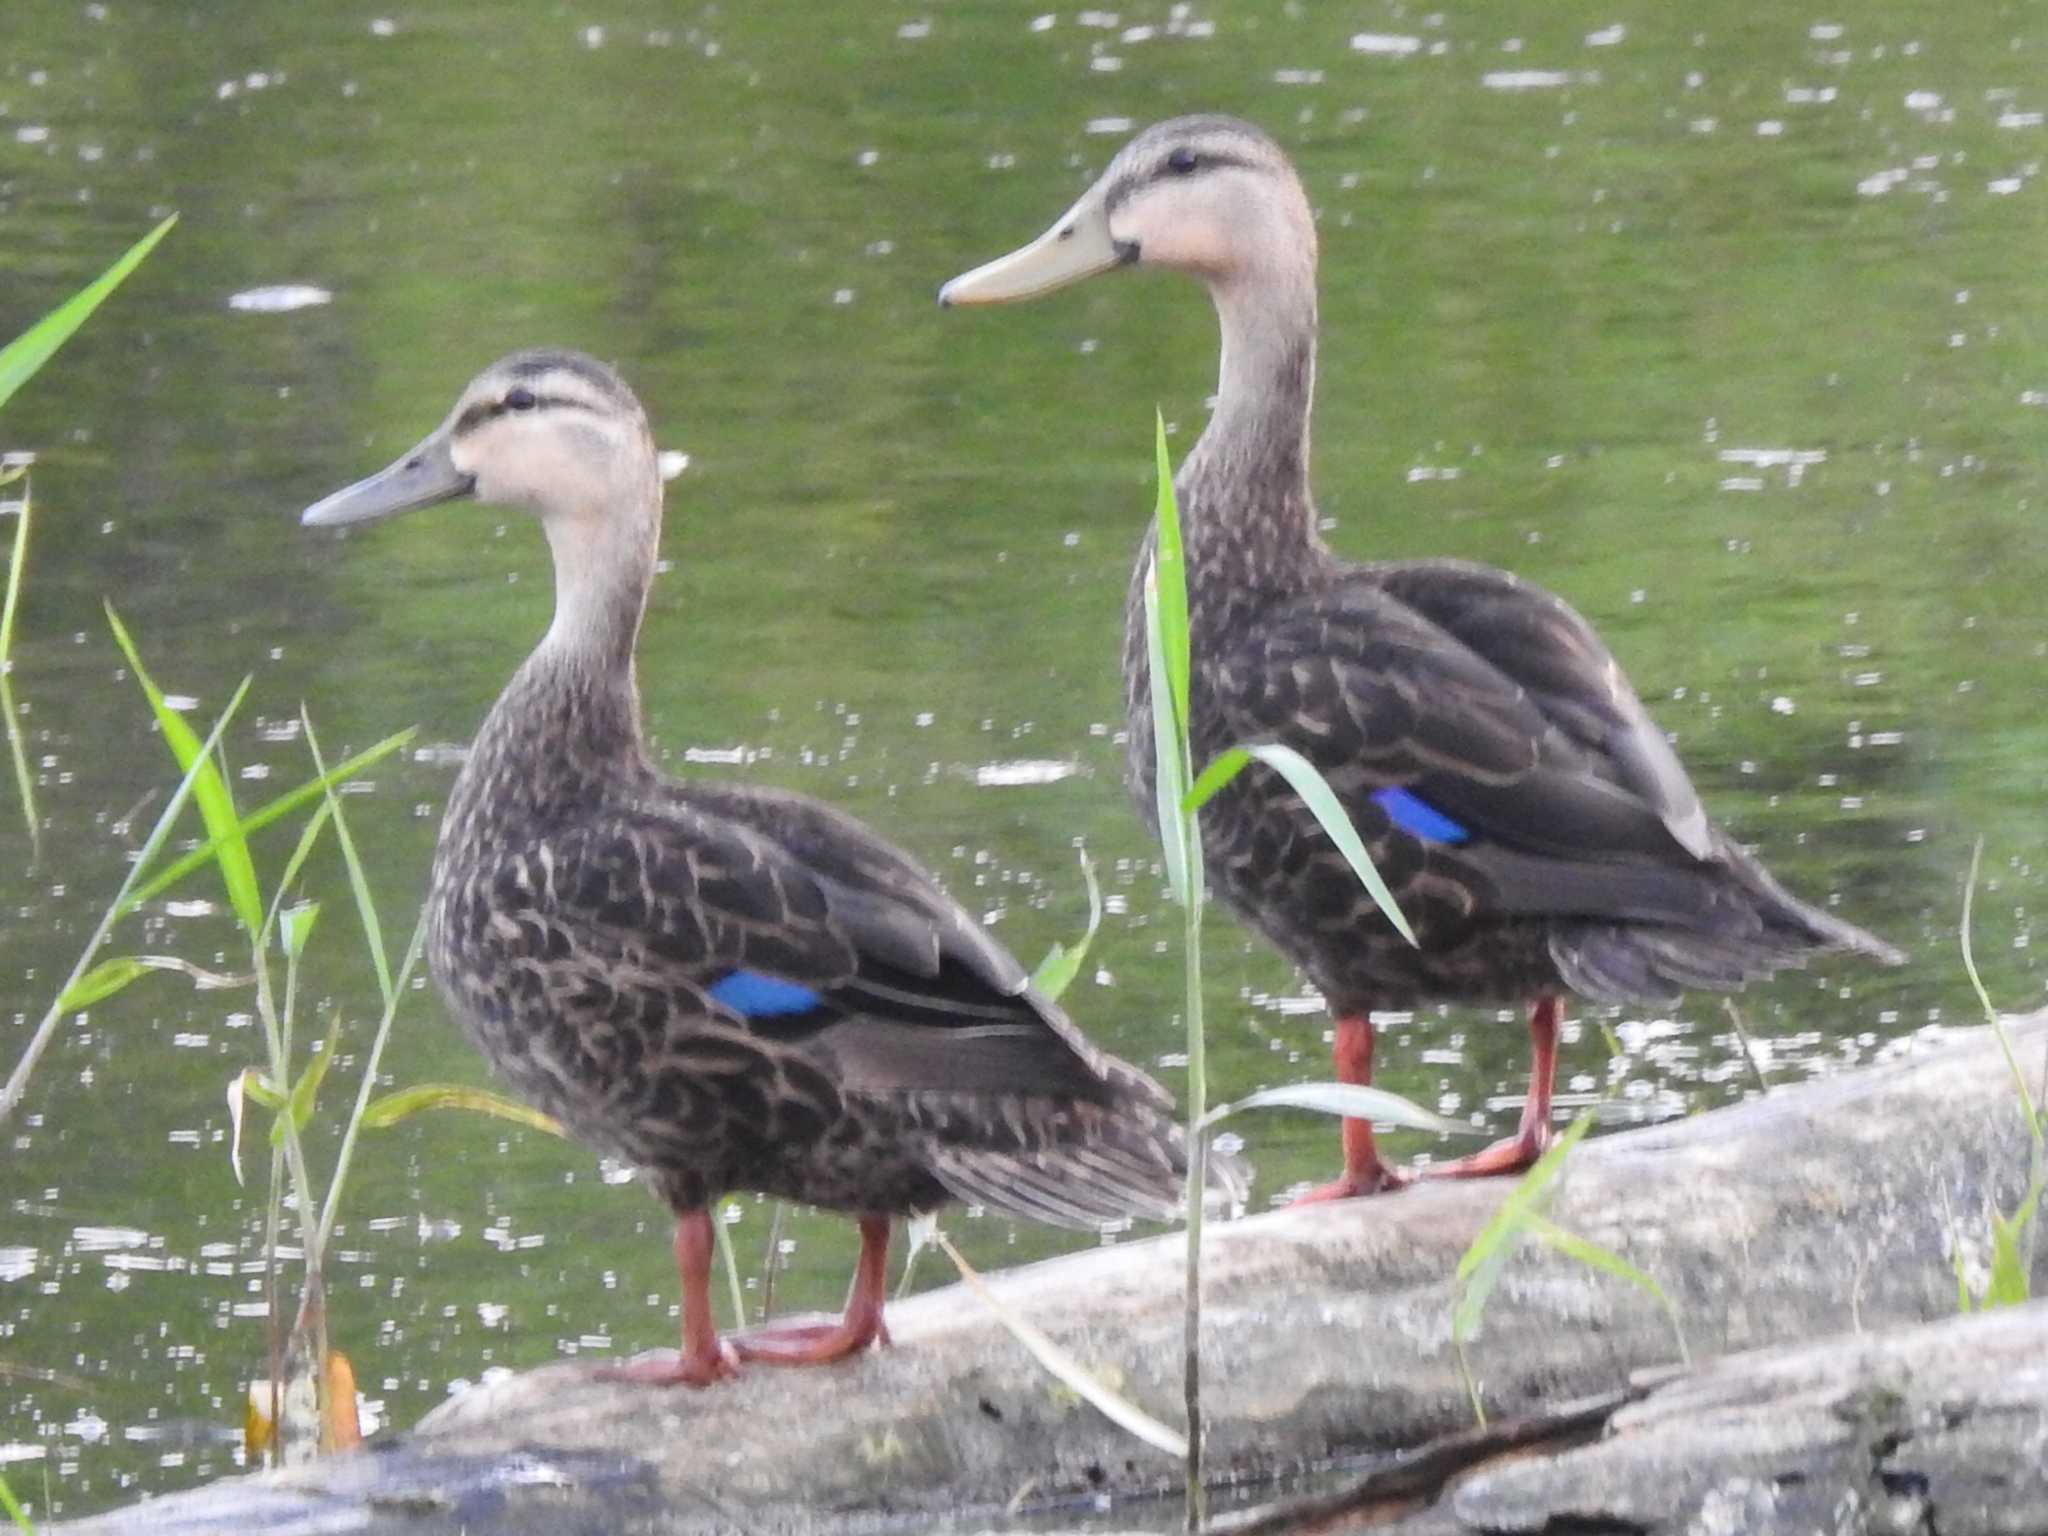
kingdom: Animalia
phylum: Chordata
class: Aves
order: Anseriformes
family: Anatidae
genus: Anas
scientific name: Anas fulvigula
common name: Mottled duck
